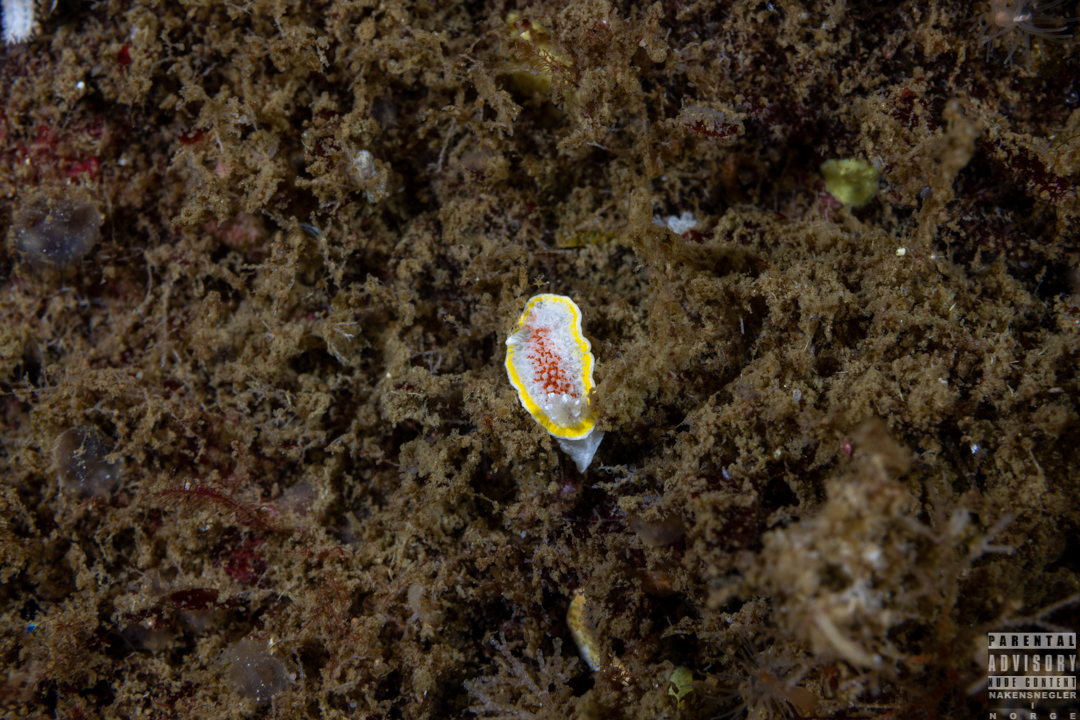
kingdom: Animalia
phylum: Mollusca
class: Gastropoda
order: Nudibranchia
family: Calycidorididae
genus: Diaphorodoris
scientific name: Diaphorodoris luteocincta
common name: Fried egg nudibranch
